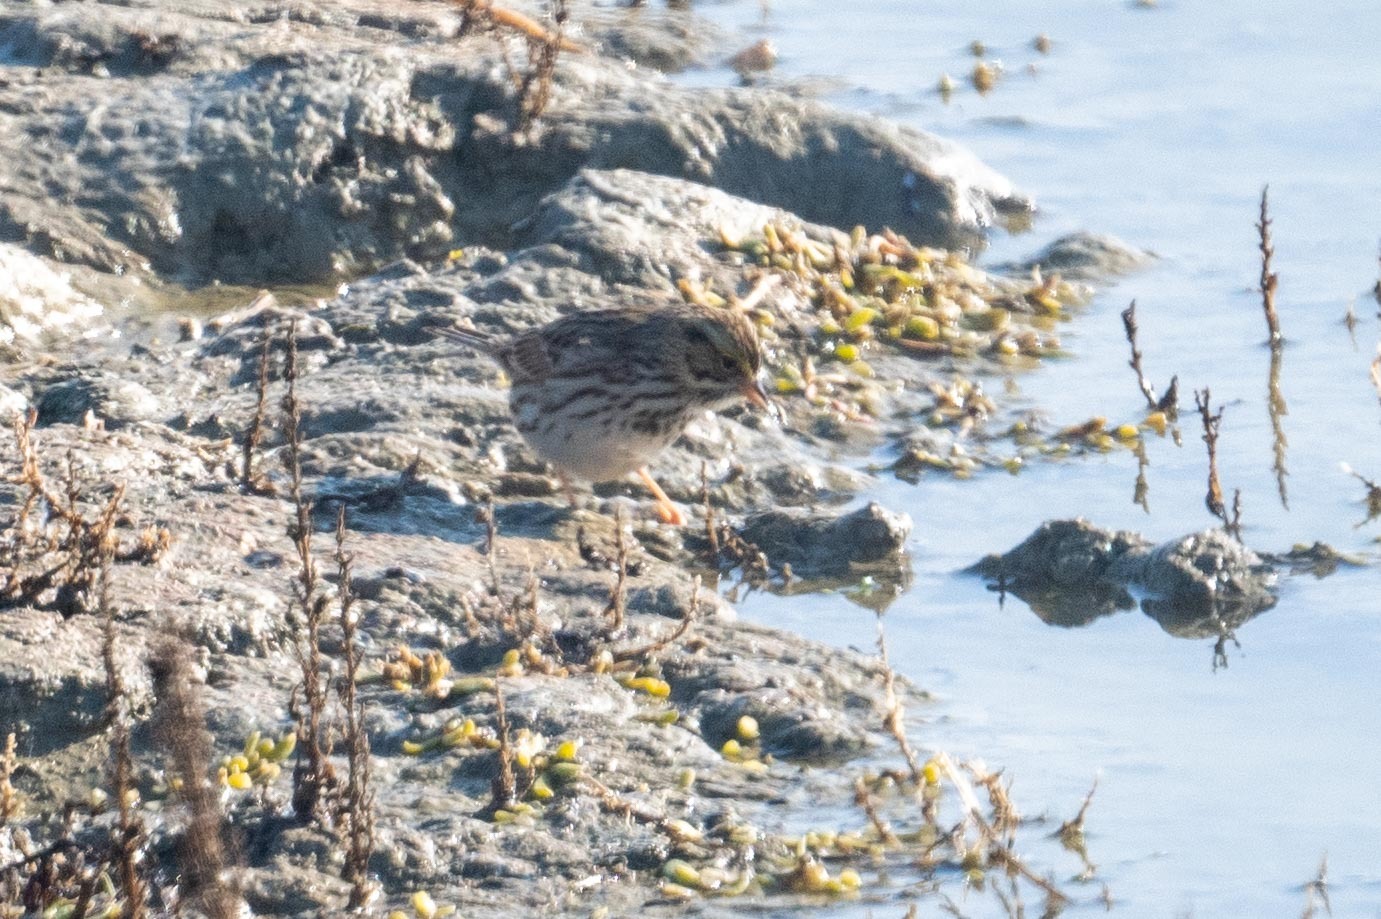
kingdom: Animalia
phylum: Chordata
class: Aves
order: Passeriformes
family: Passerellidae
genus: Passerculus
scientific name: Passerculus sandwichensis
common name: Savannah sparrow
